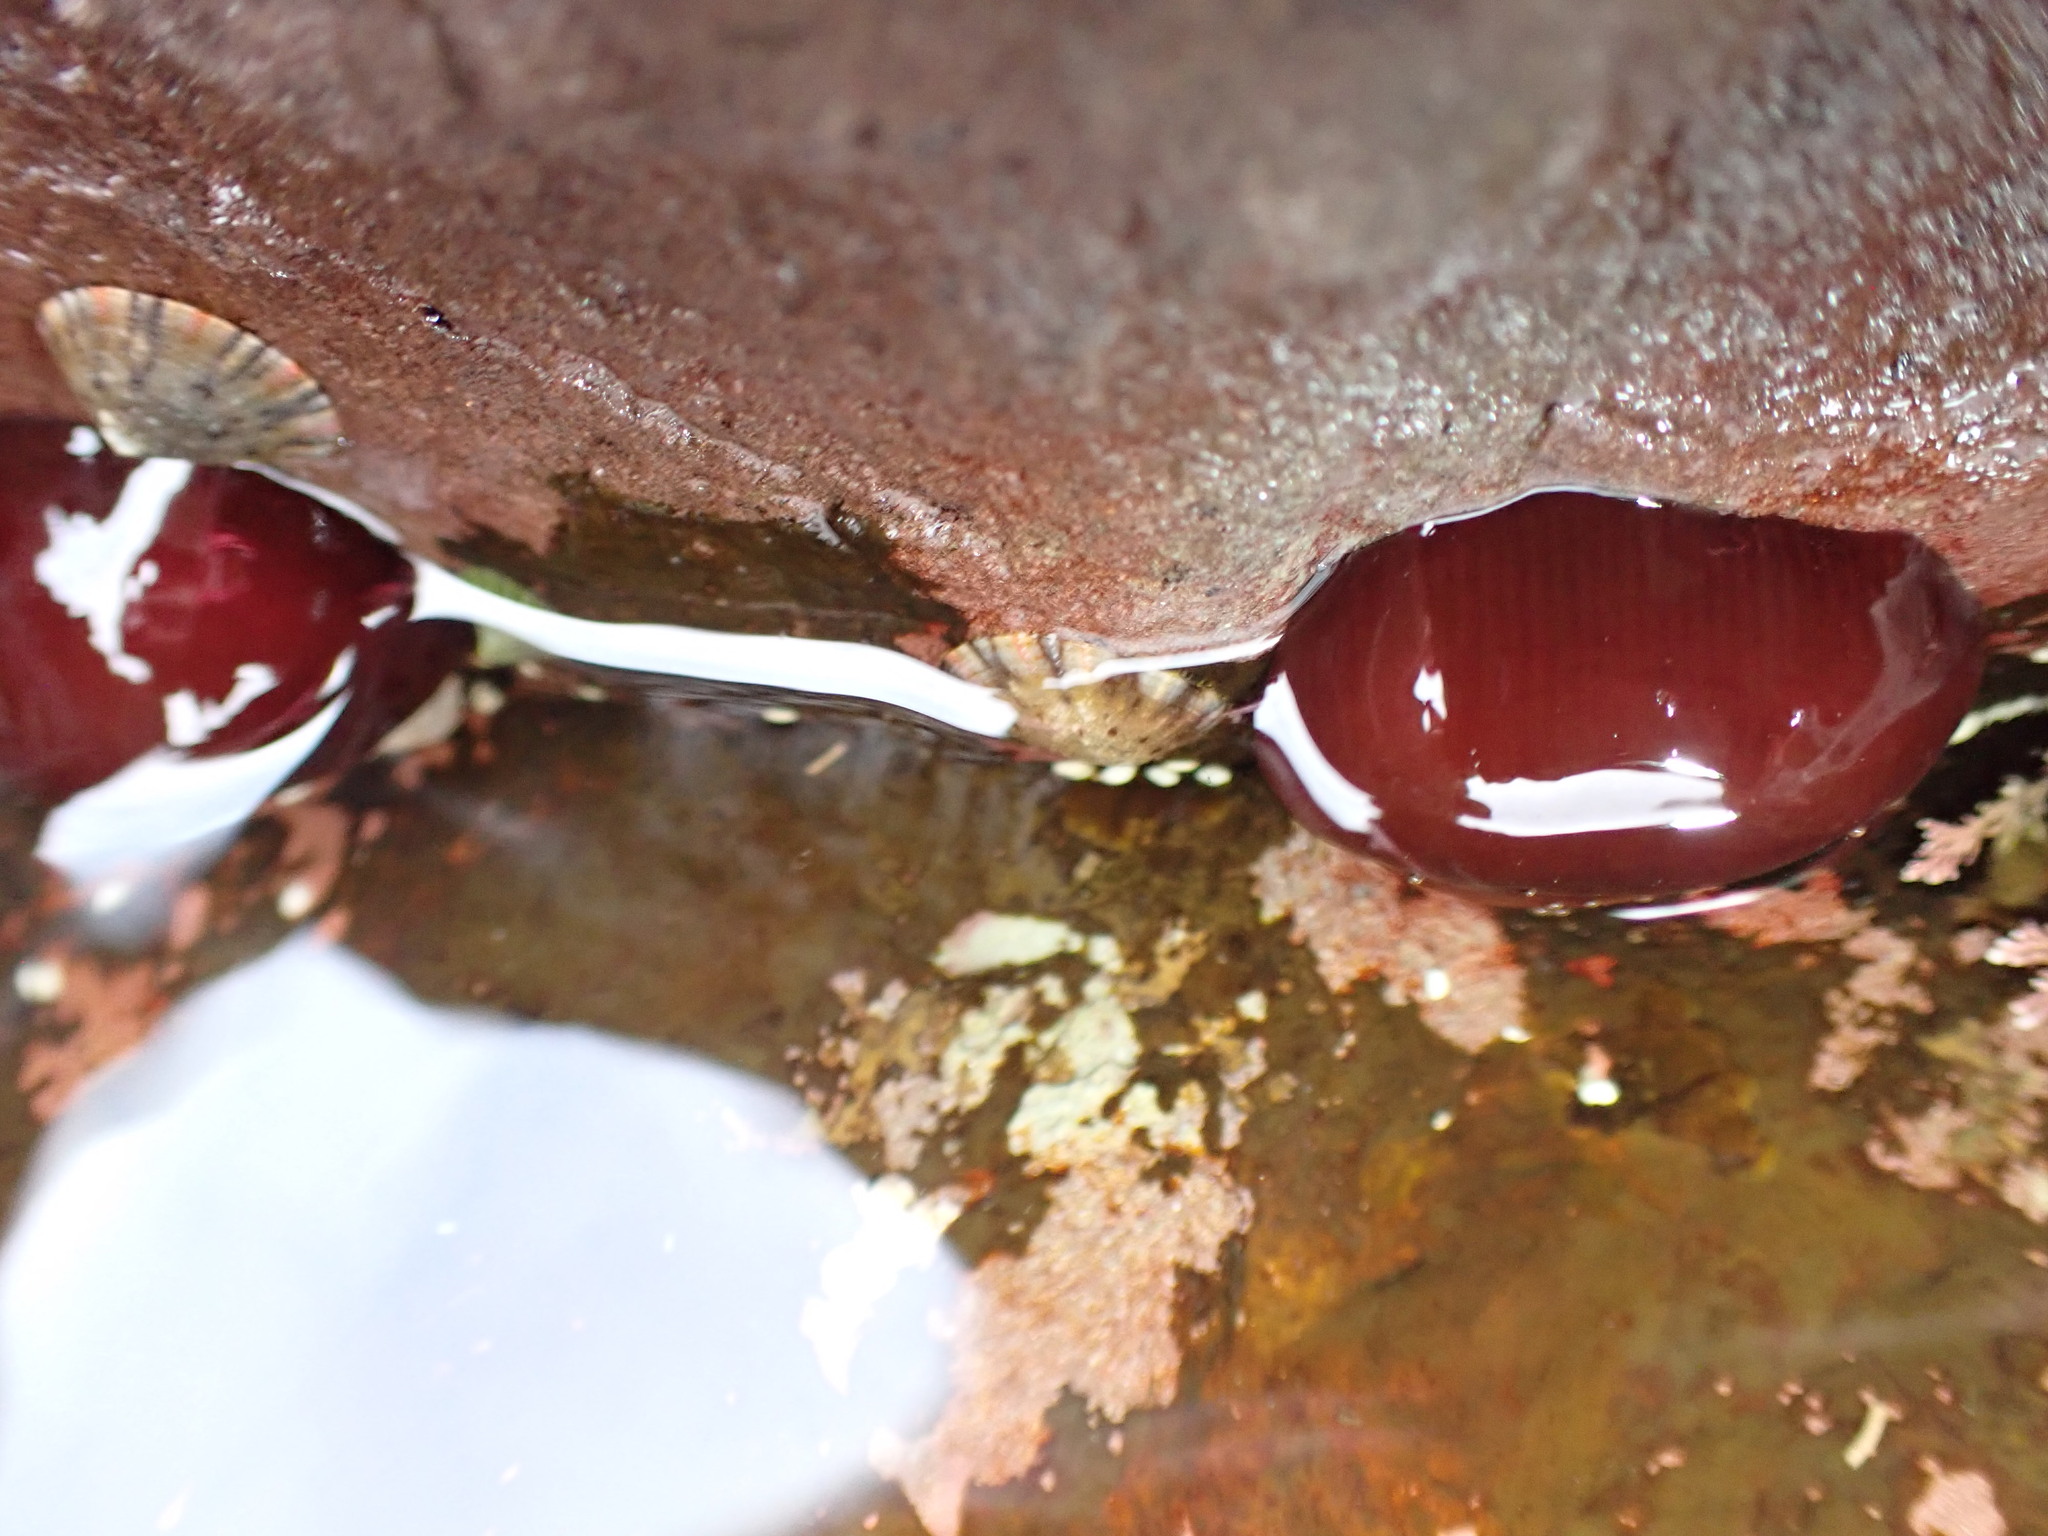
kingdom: Animalia
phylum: Cnidaria
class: Anthozoa
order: Actiniaria
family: Actiniidae
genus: Actinia
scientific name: Actinia tenebrosa
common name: Waratah anemone
